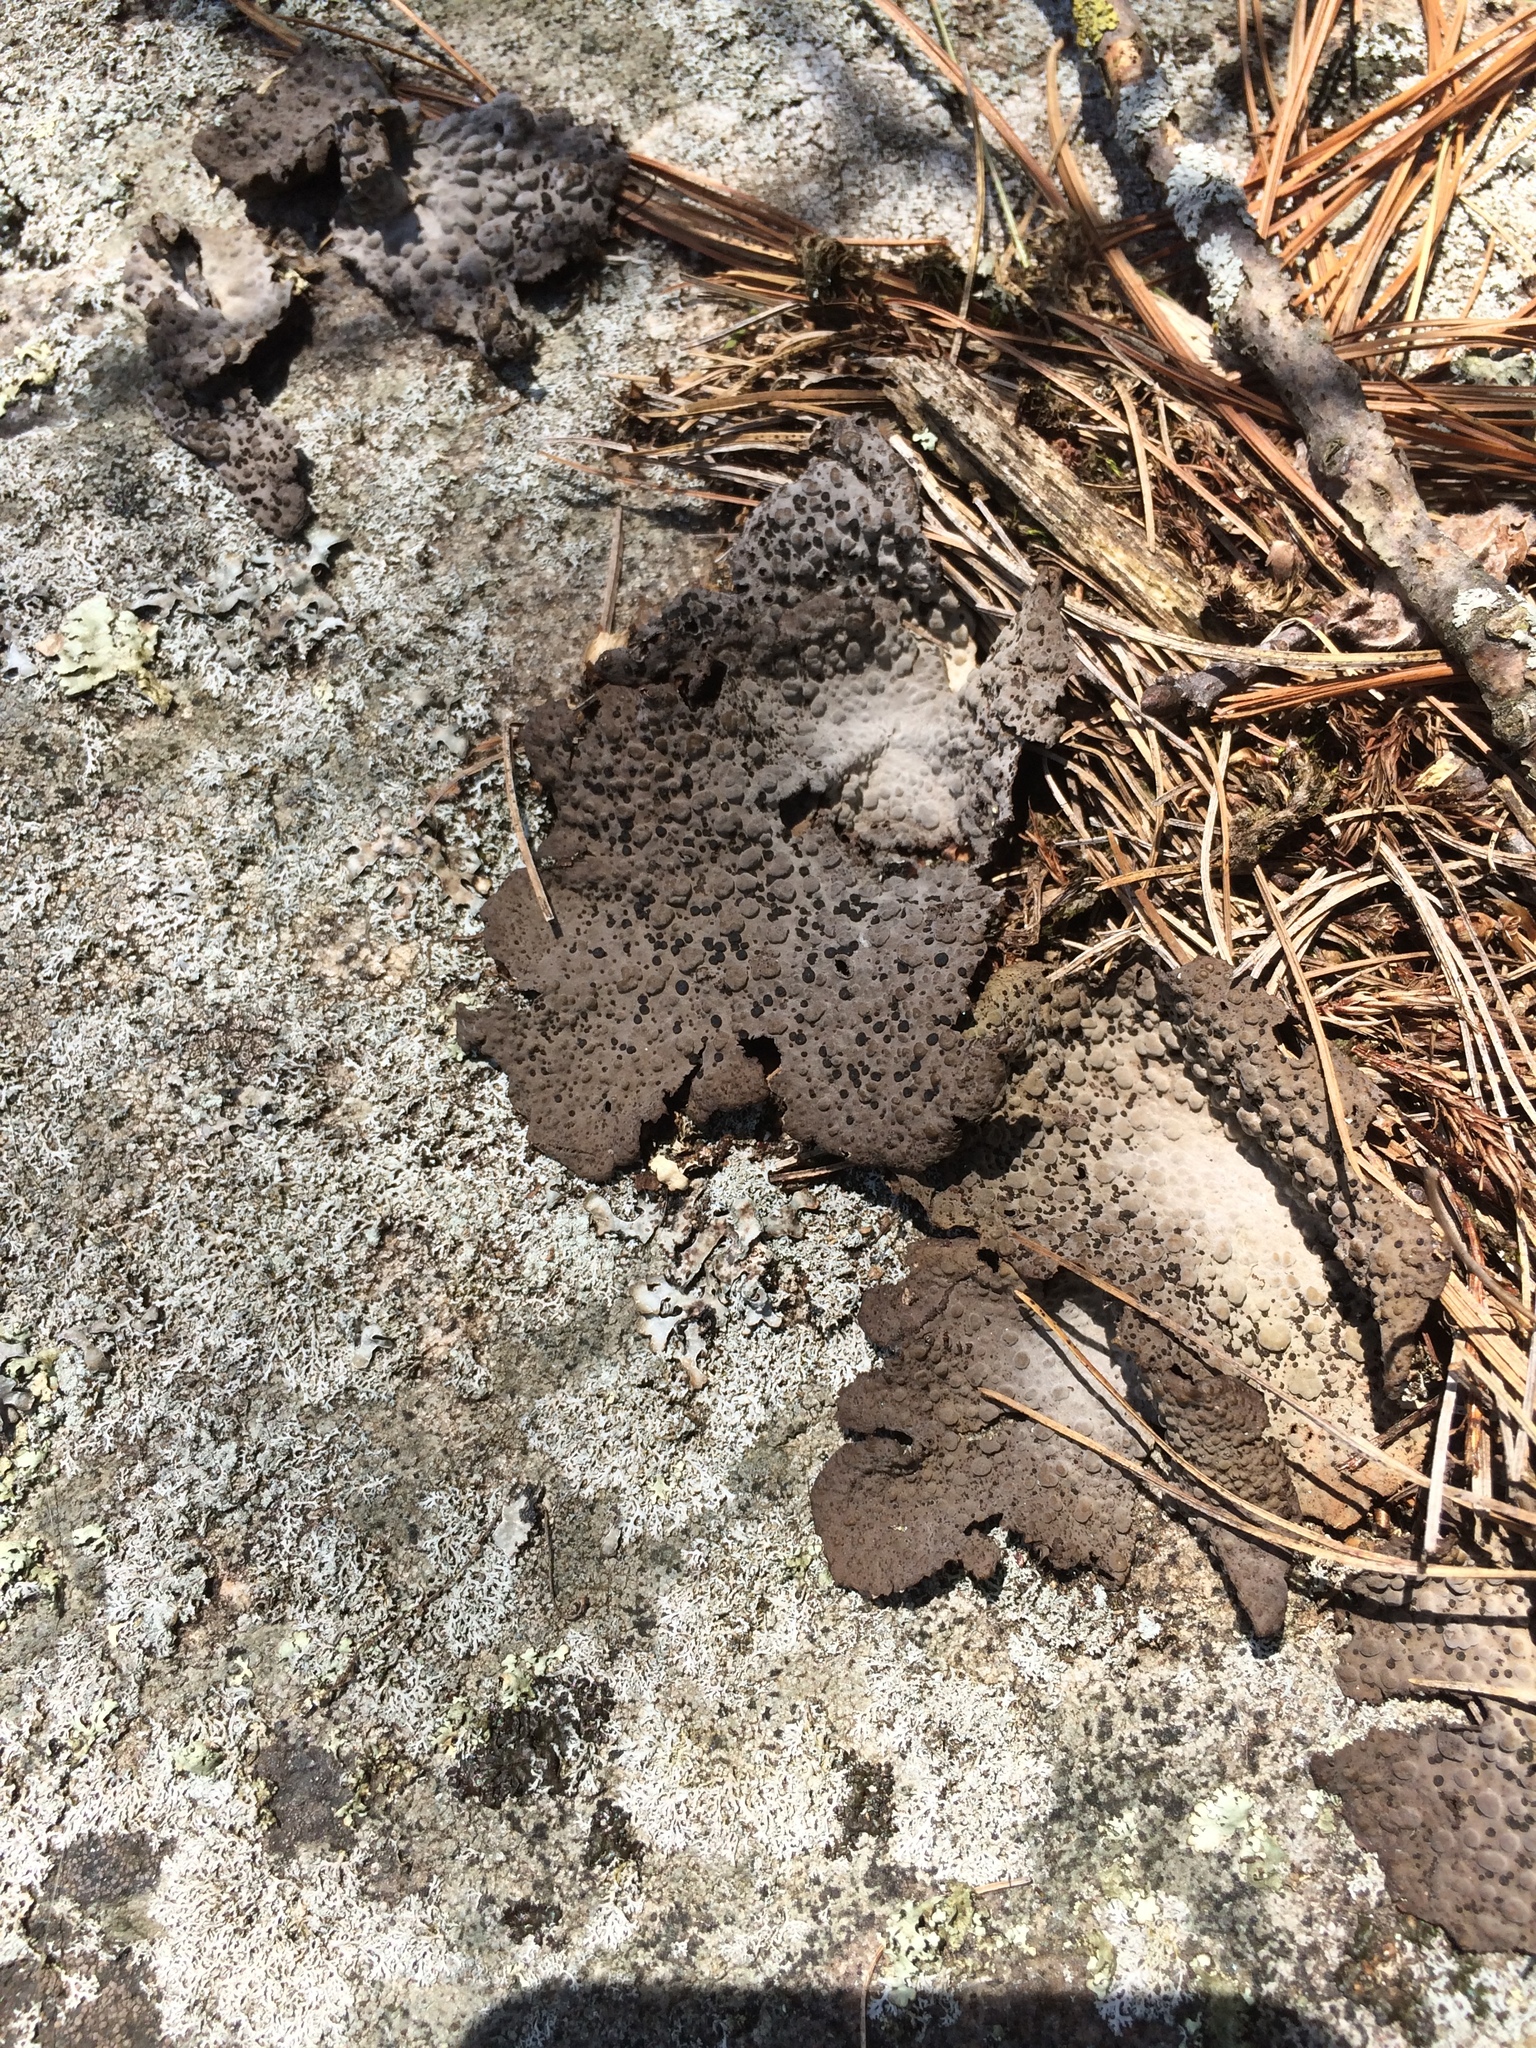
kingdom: Fungi
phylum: Ascomycota
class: Lecanoromycetes
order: Umbilicariales
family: Umbilicariaceae
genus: Lasallia
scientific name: Lasallia papulosa
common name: Common toadskin lichen
